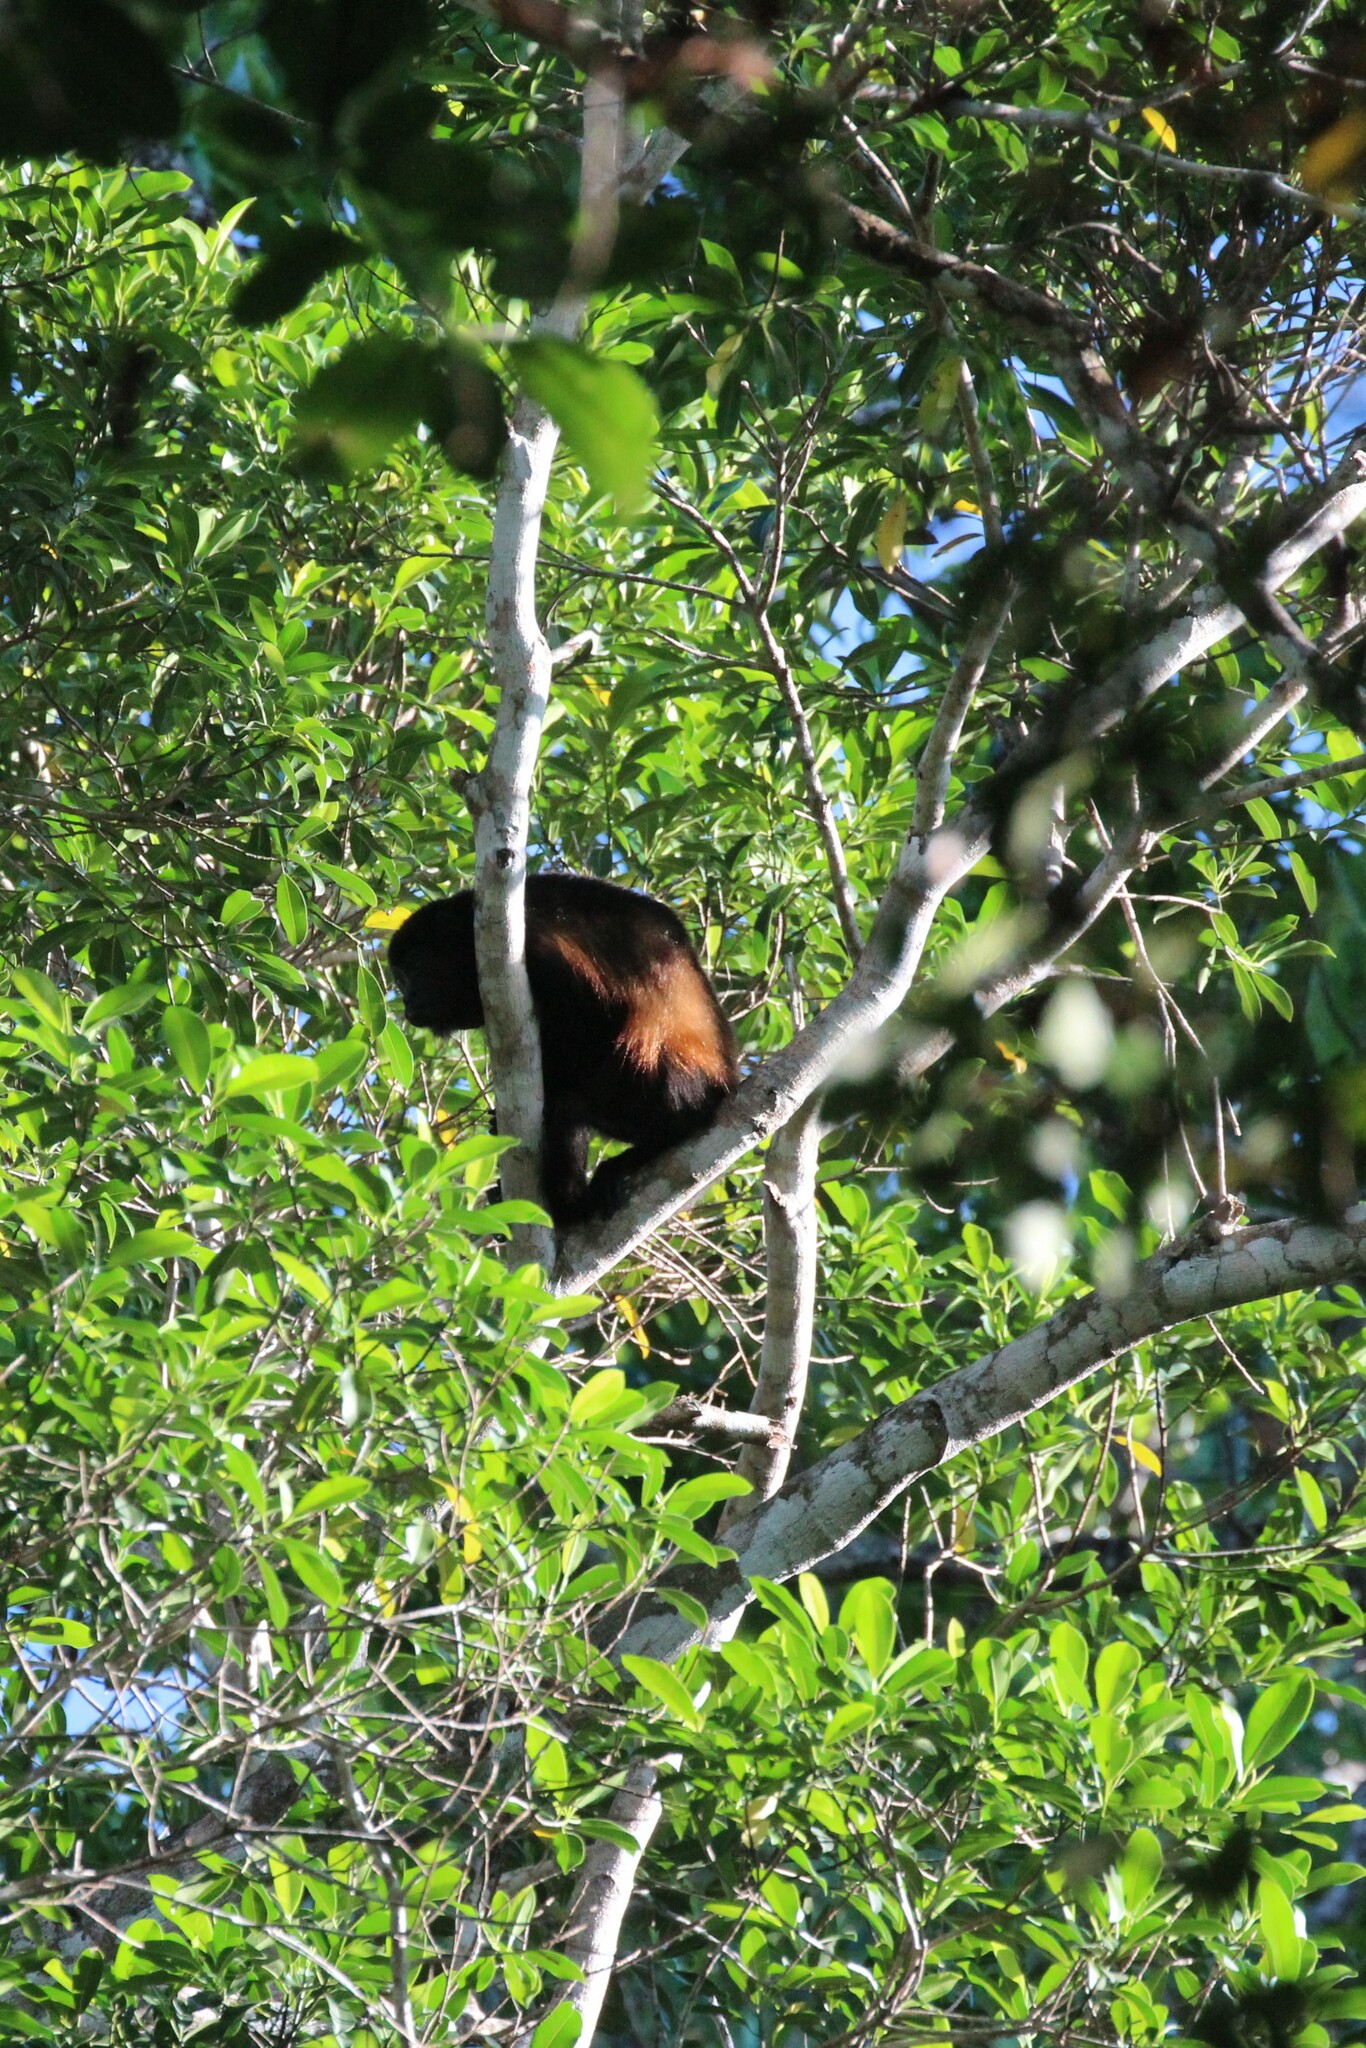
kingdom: Animalia
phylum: Chordata
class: Mammalia
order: Primates
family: Atelidae
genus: Alouatta
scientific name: Alouatta palliata
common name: Mantled howler
